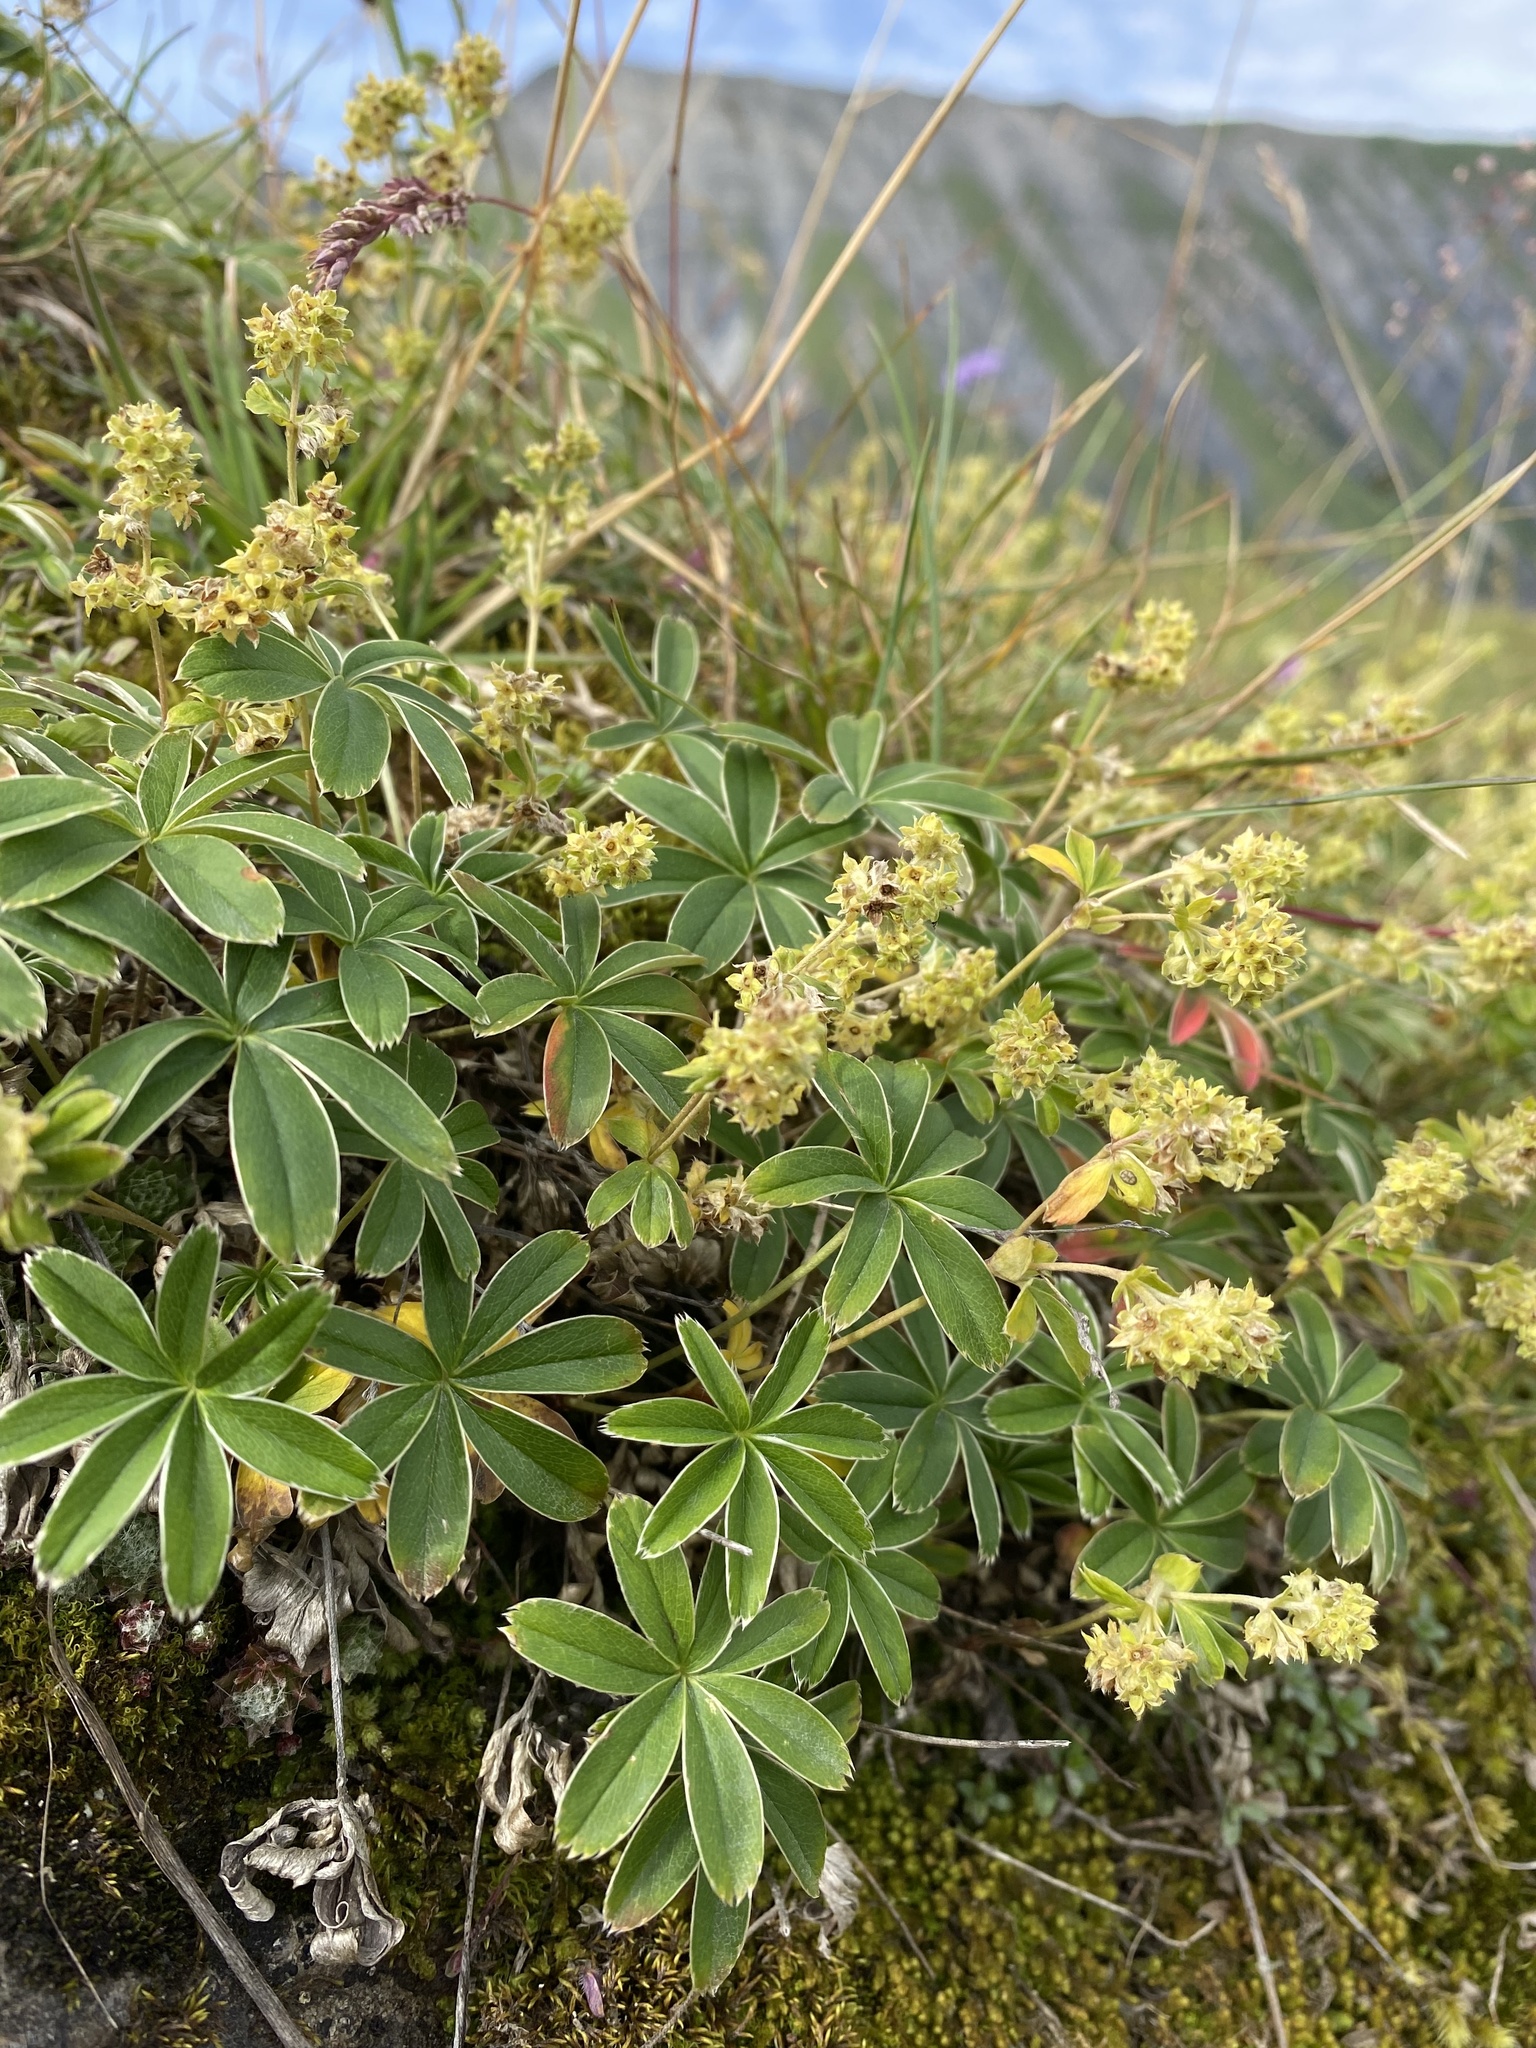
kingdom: Plantae
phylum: Tracheophyta
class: Magnoliopsida
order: Rosales
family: Rosaceae
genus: Alchemilla
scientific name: Alchemilla alpina
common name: Alpine lady's-mantle
